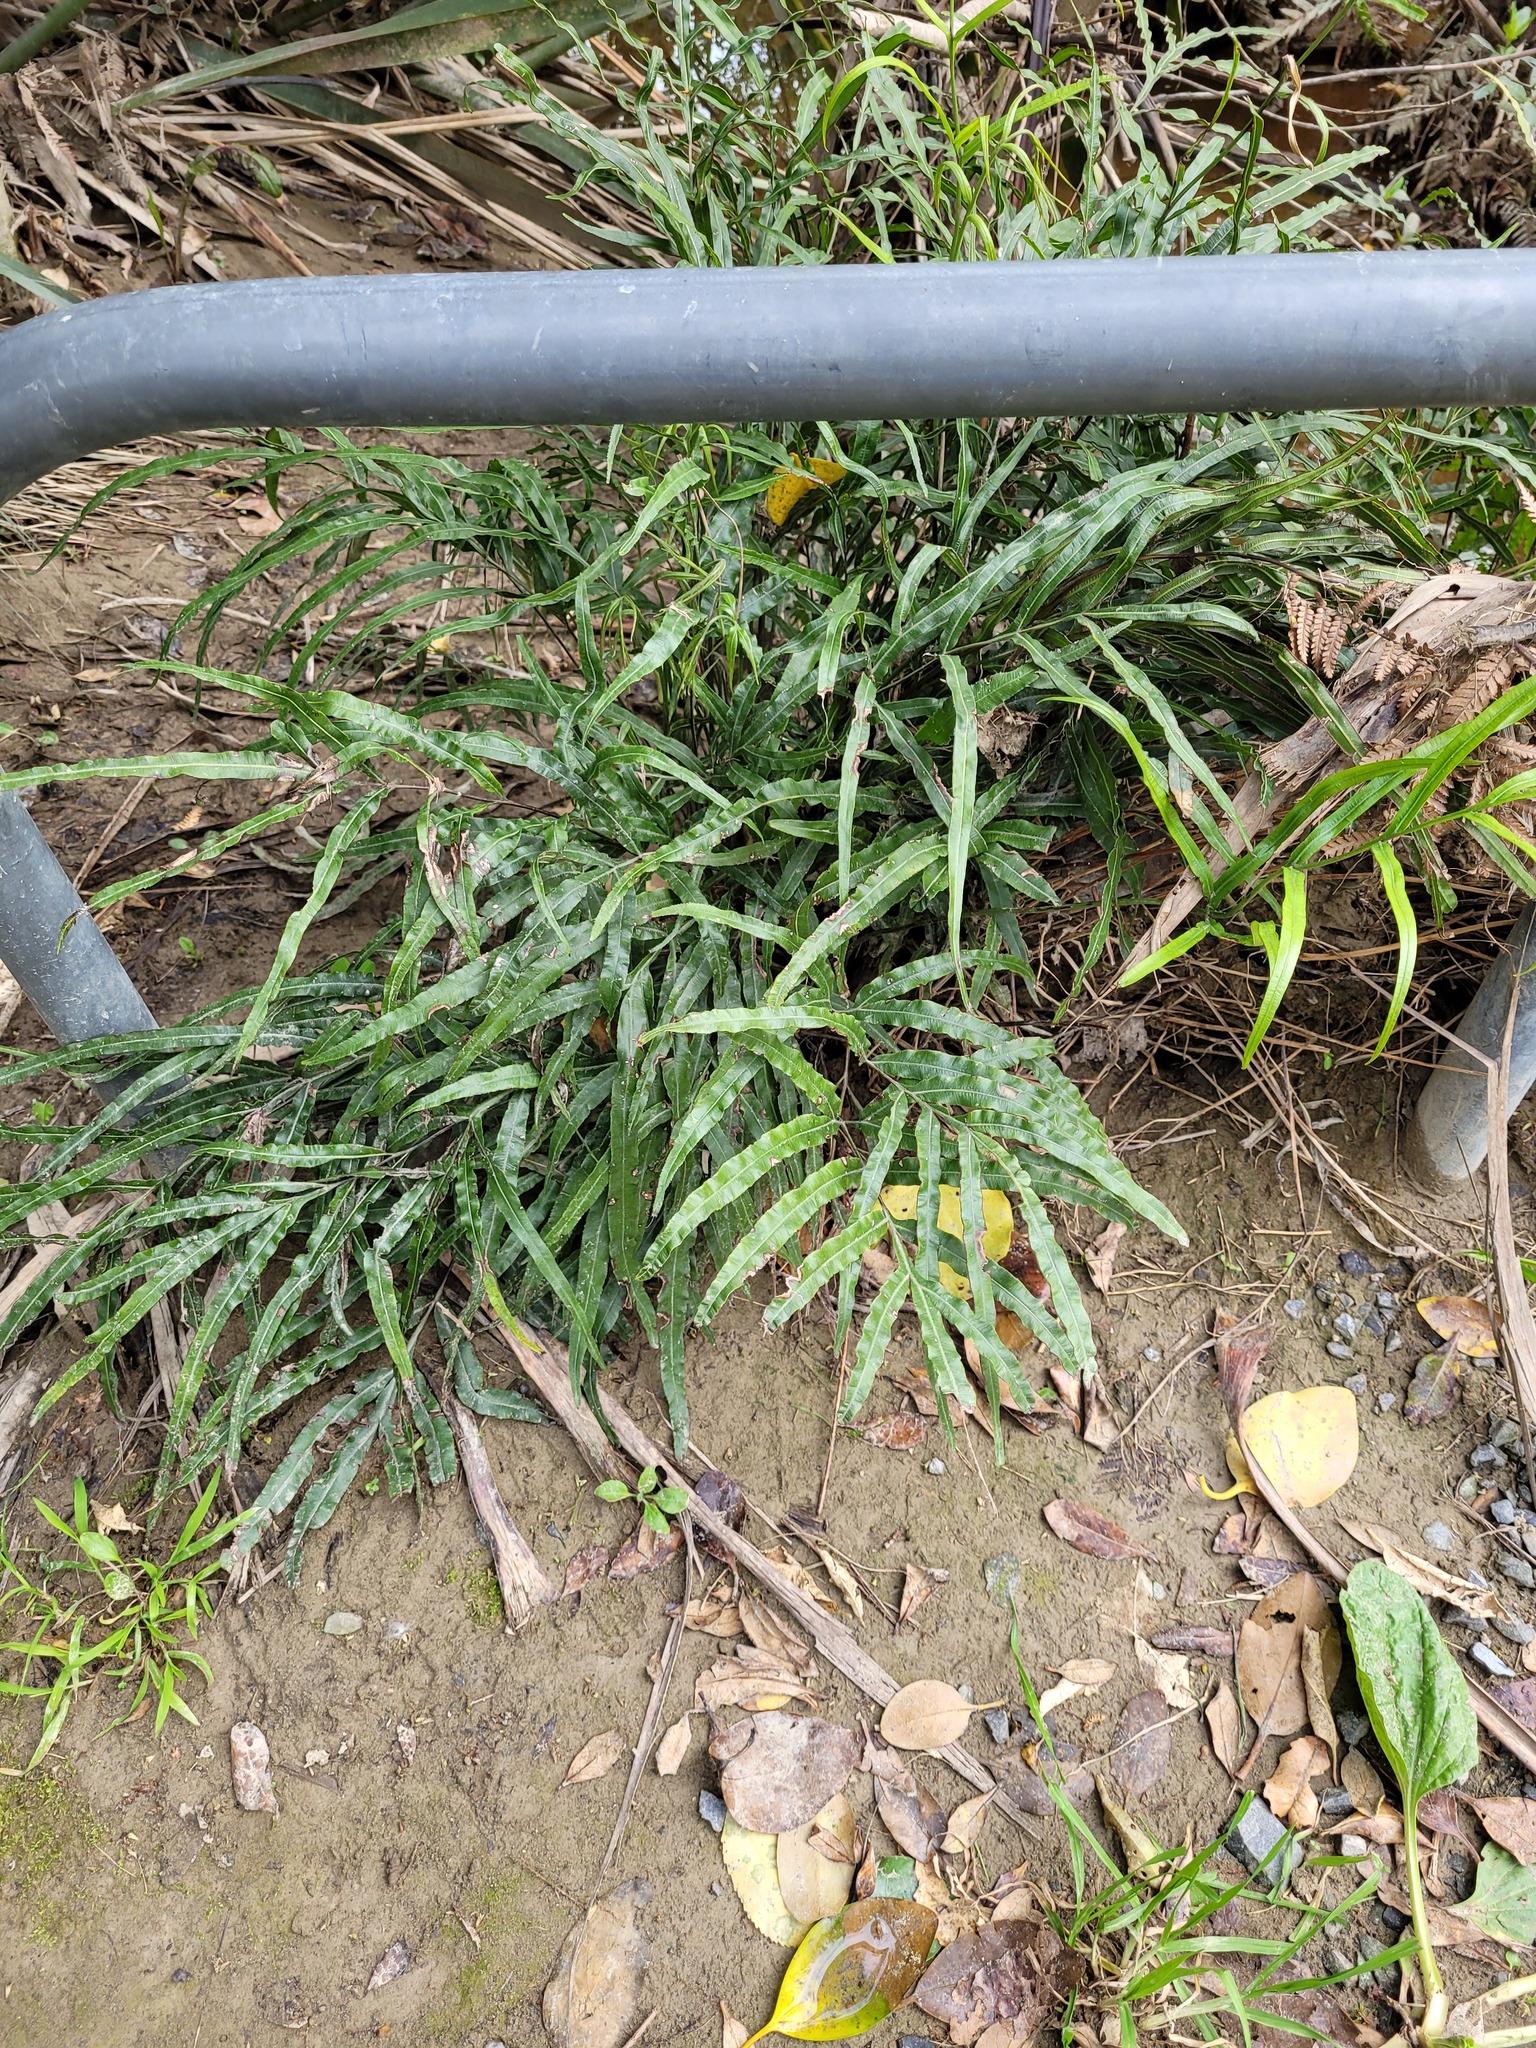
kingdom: Plantae
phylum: Tracheophyta
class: Polypodiopsida
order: Polypodiales
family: Pteridaceae
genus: Pteris
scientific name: Pteris cretica
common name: Ribbon fern
